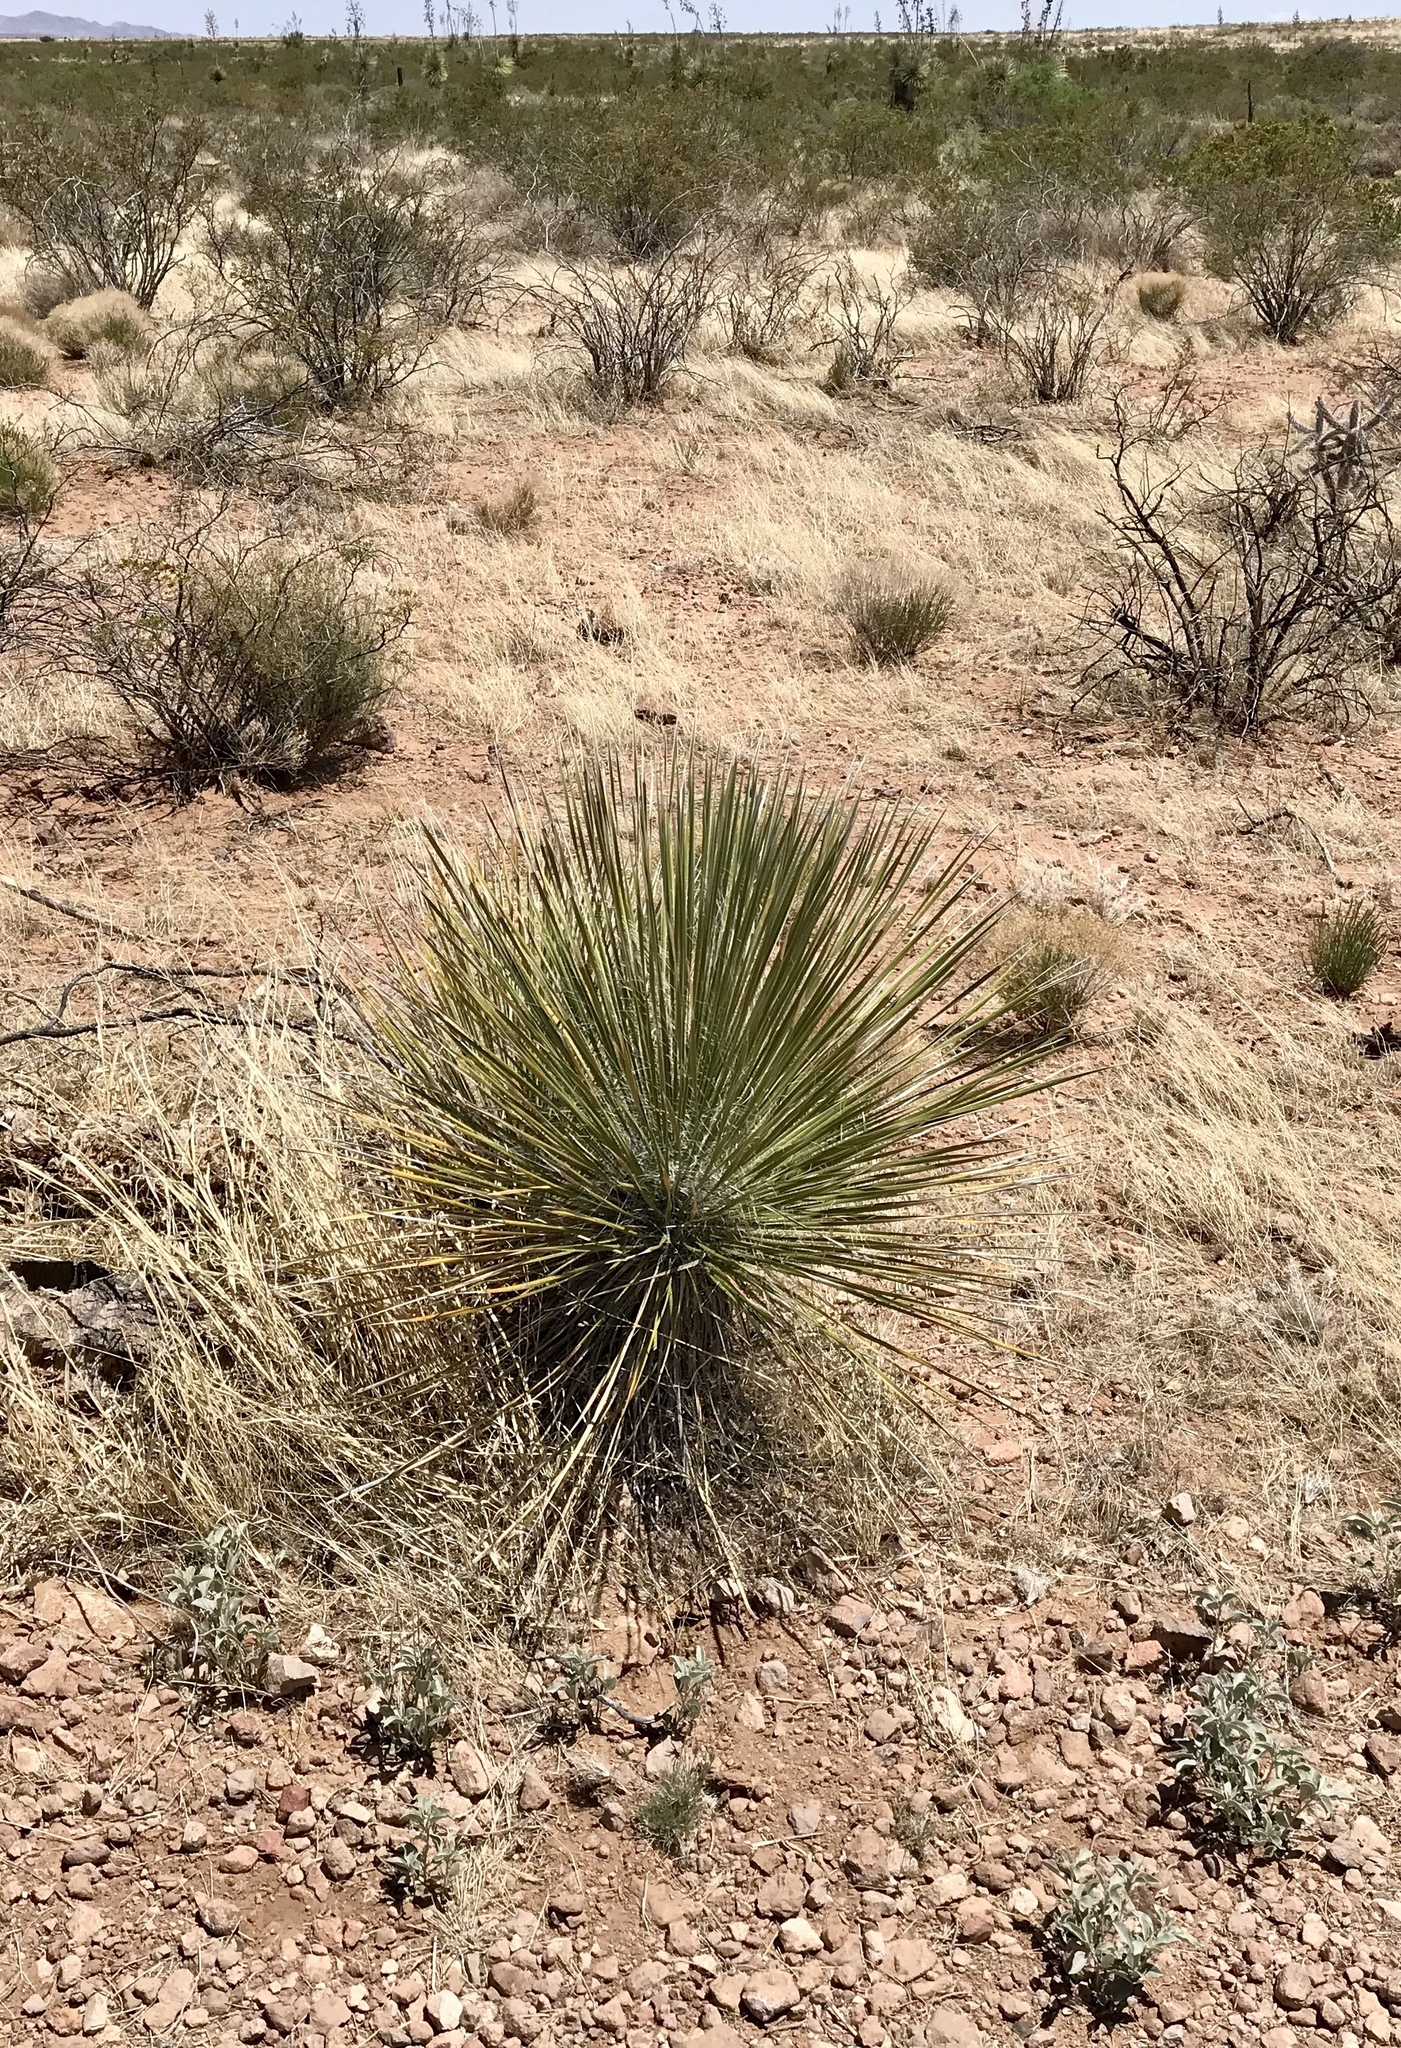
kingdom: Plantae
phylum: Tracheophyta
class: Liliopsida
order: Asparagales
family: Asparagaceae
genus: Yucca
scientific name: Yucca elata
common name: Palmella
